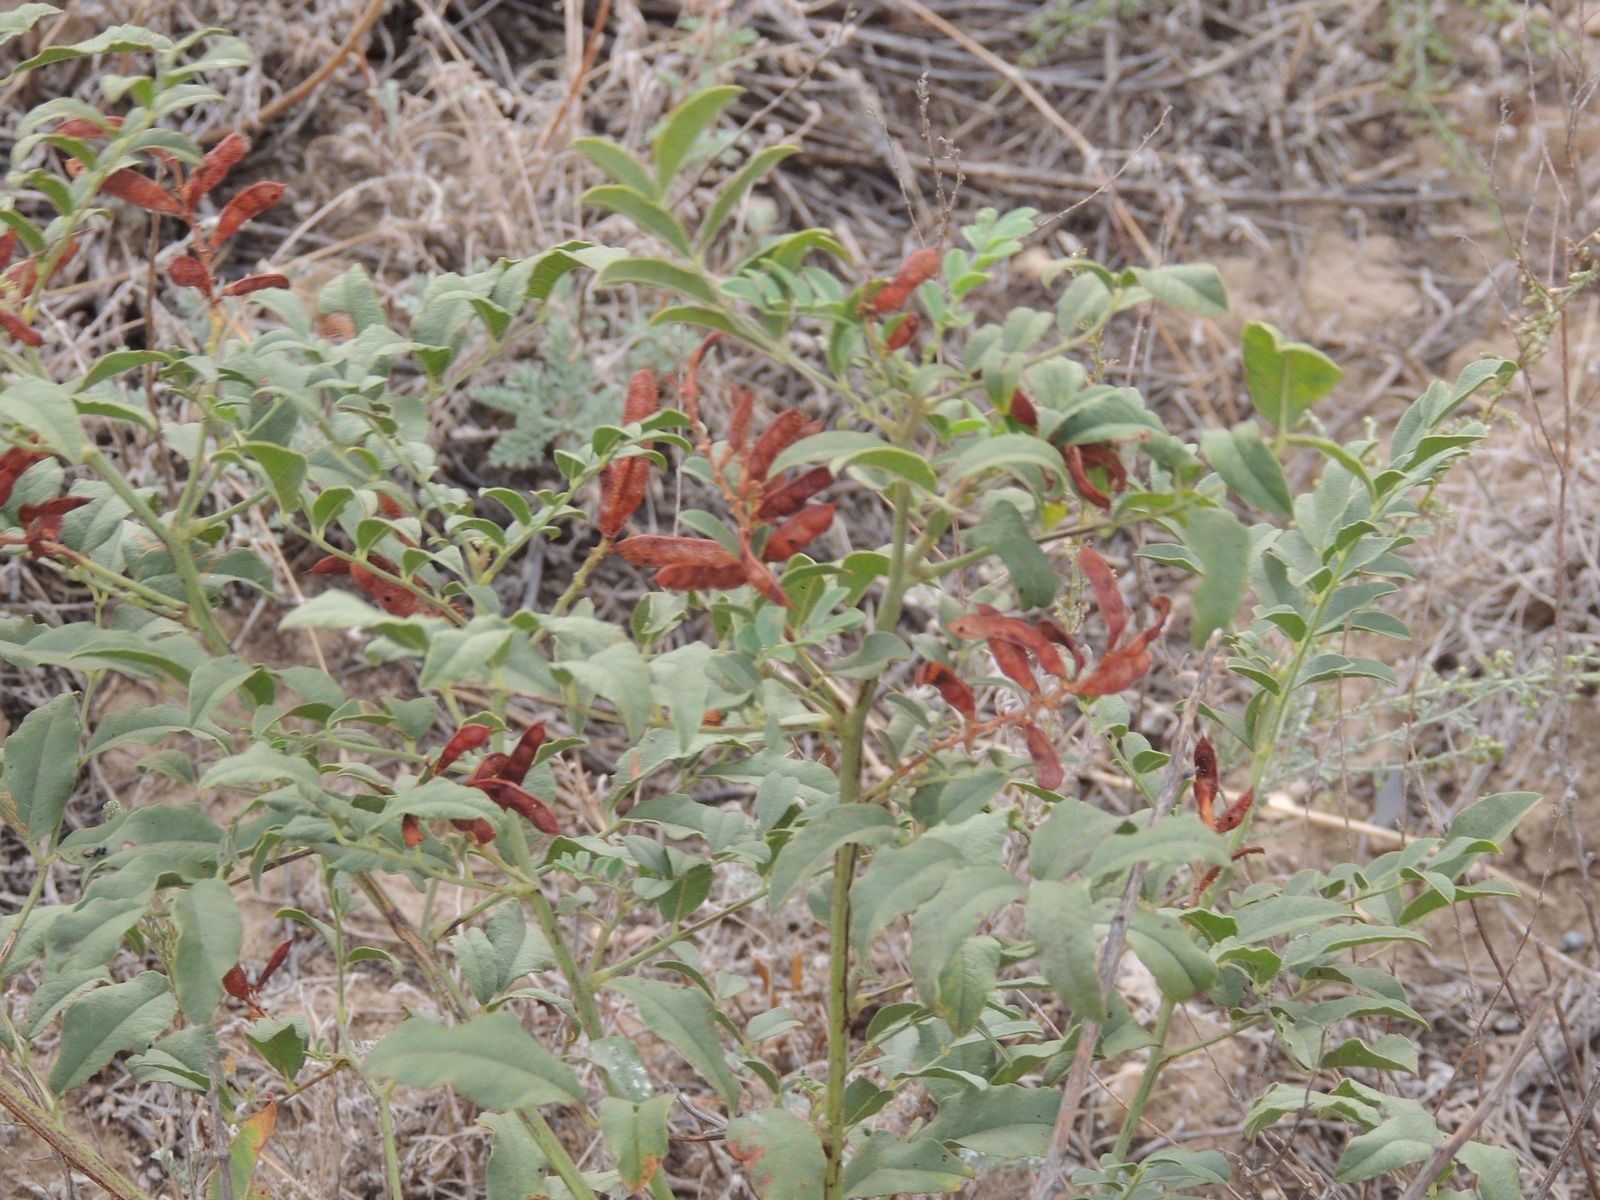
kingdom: Plantae
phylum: Tracheophyta
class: Magnoliopsida
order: Fabales
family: Fabaceae
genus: Glycyrrhiza
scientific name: Glycyrrhiza glabra
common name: Liquorice
